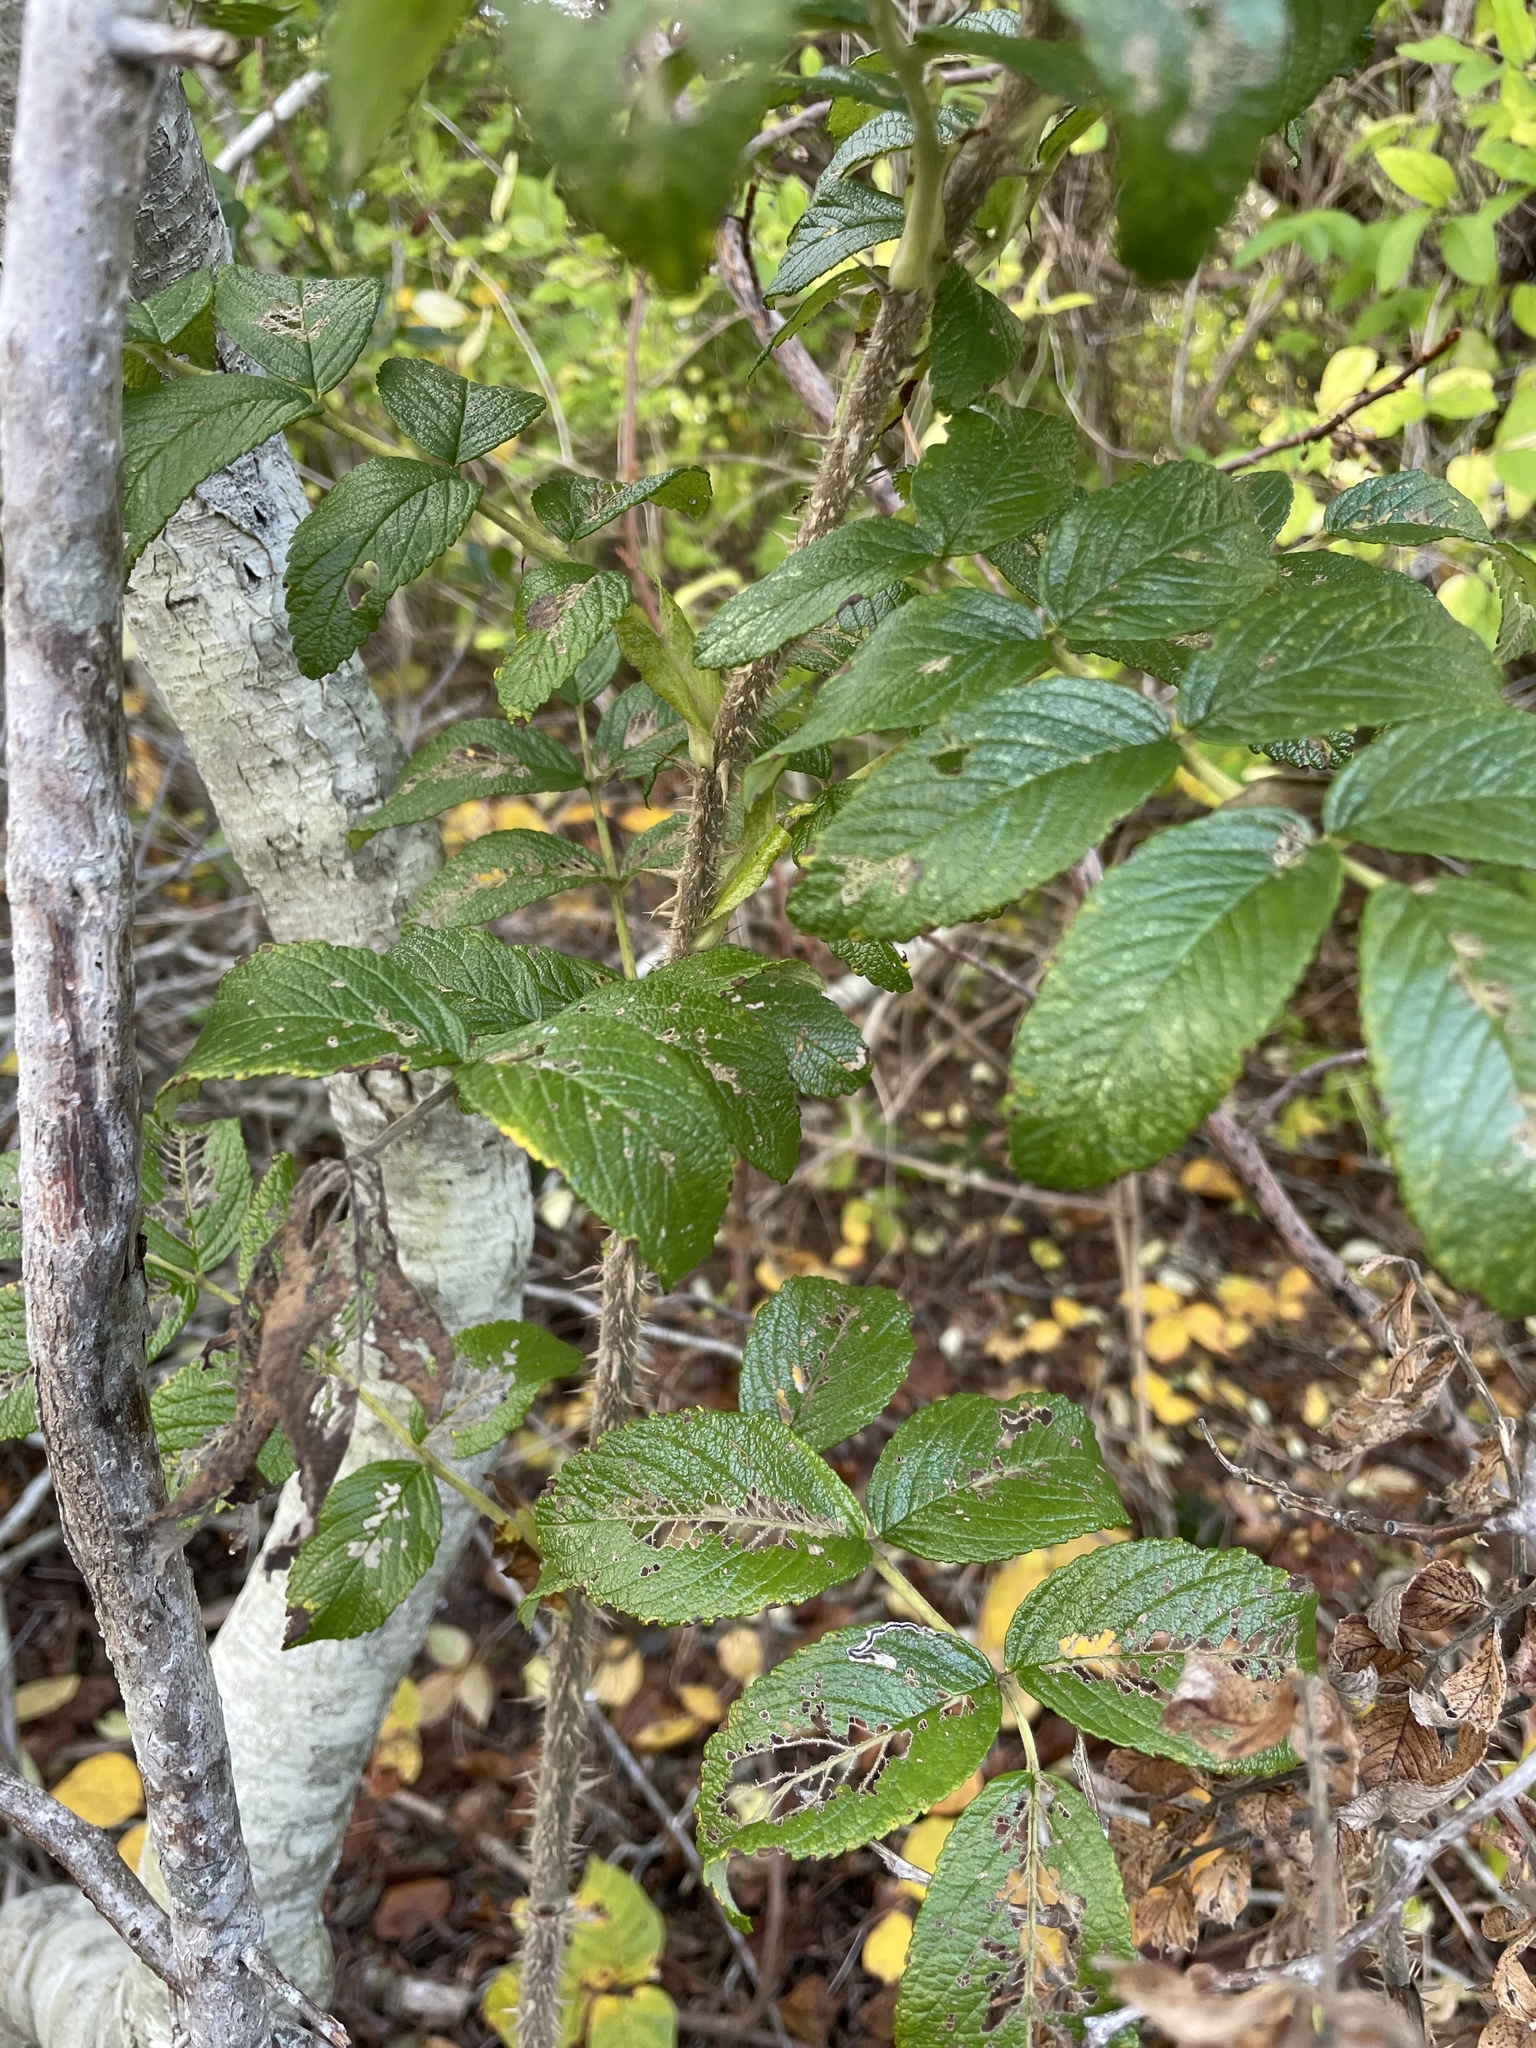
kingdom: Plantae
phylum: Tracheophyta
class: Magnoliopsida
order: Rosales
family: Rosaceae
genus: Rosa
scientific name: Rosa rugosa
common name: Japanese rose
